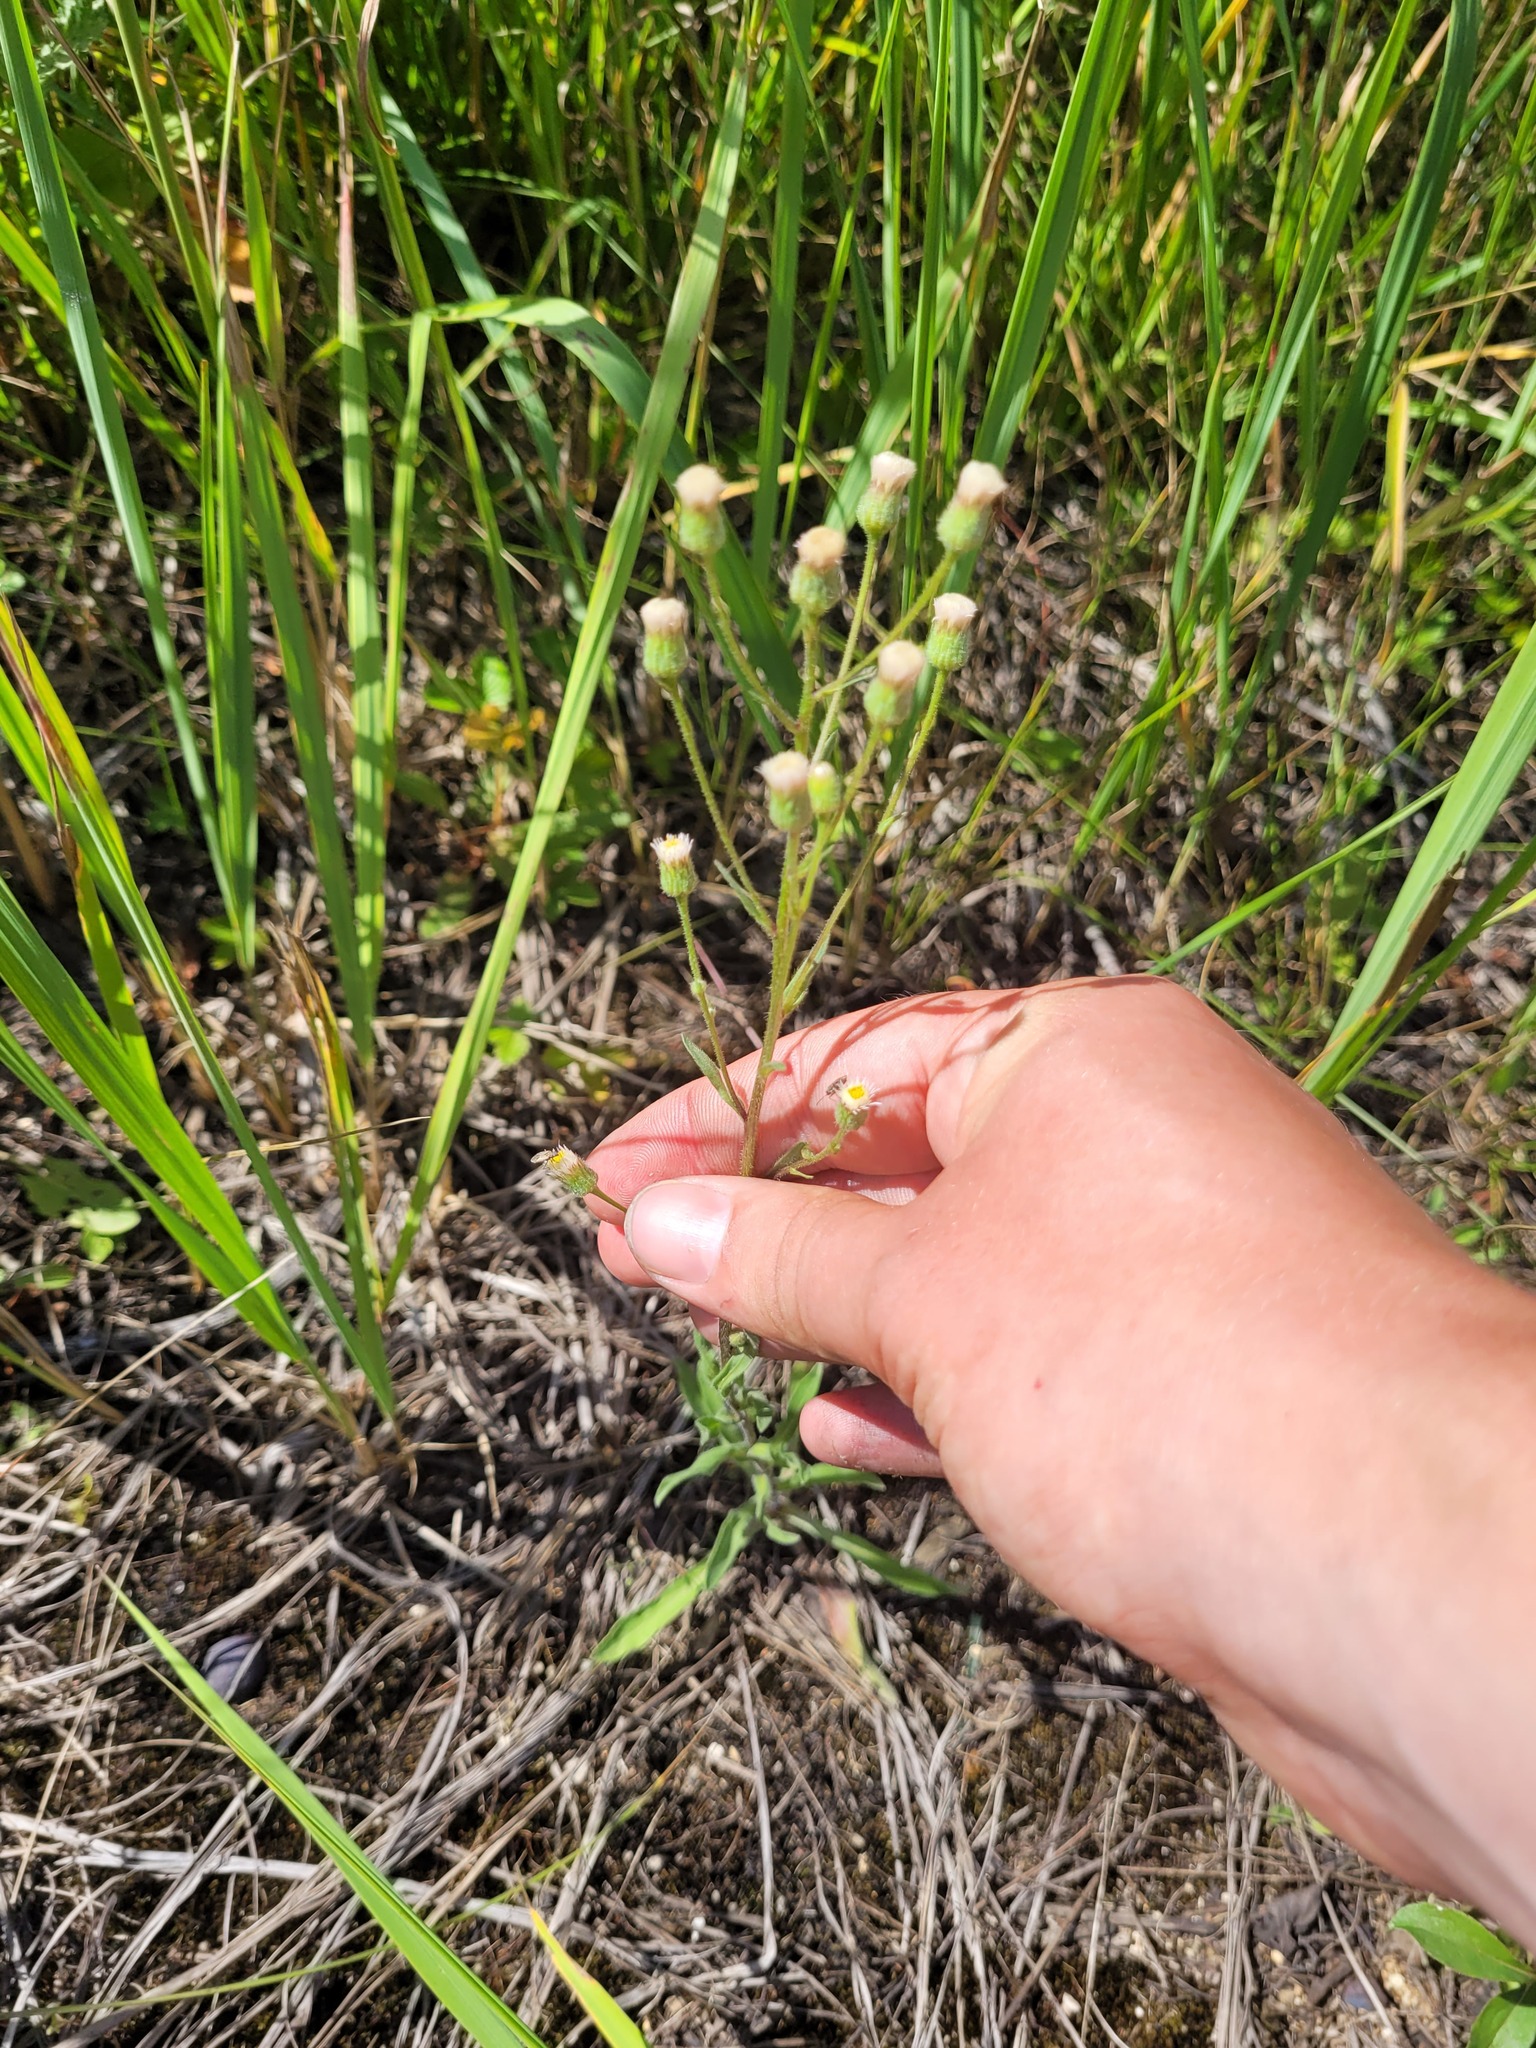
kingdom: Plantae
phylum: Tracheophyta
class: Magnoliopsida
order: Asterales
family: Asteraceae
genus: Erigeron
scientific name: Erigeron acris
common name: Blue fleabane
